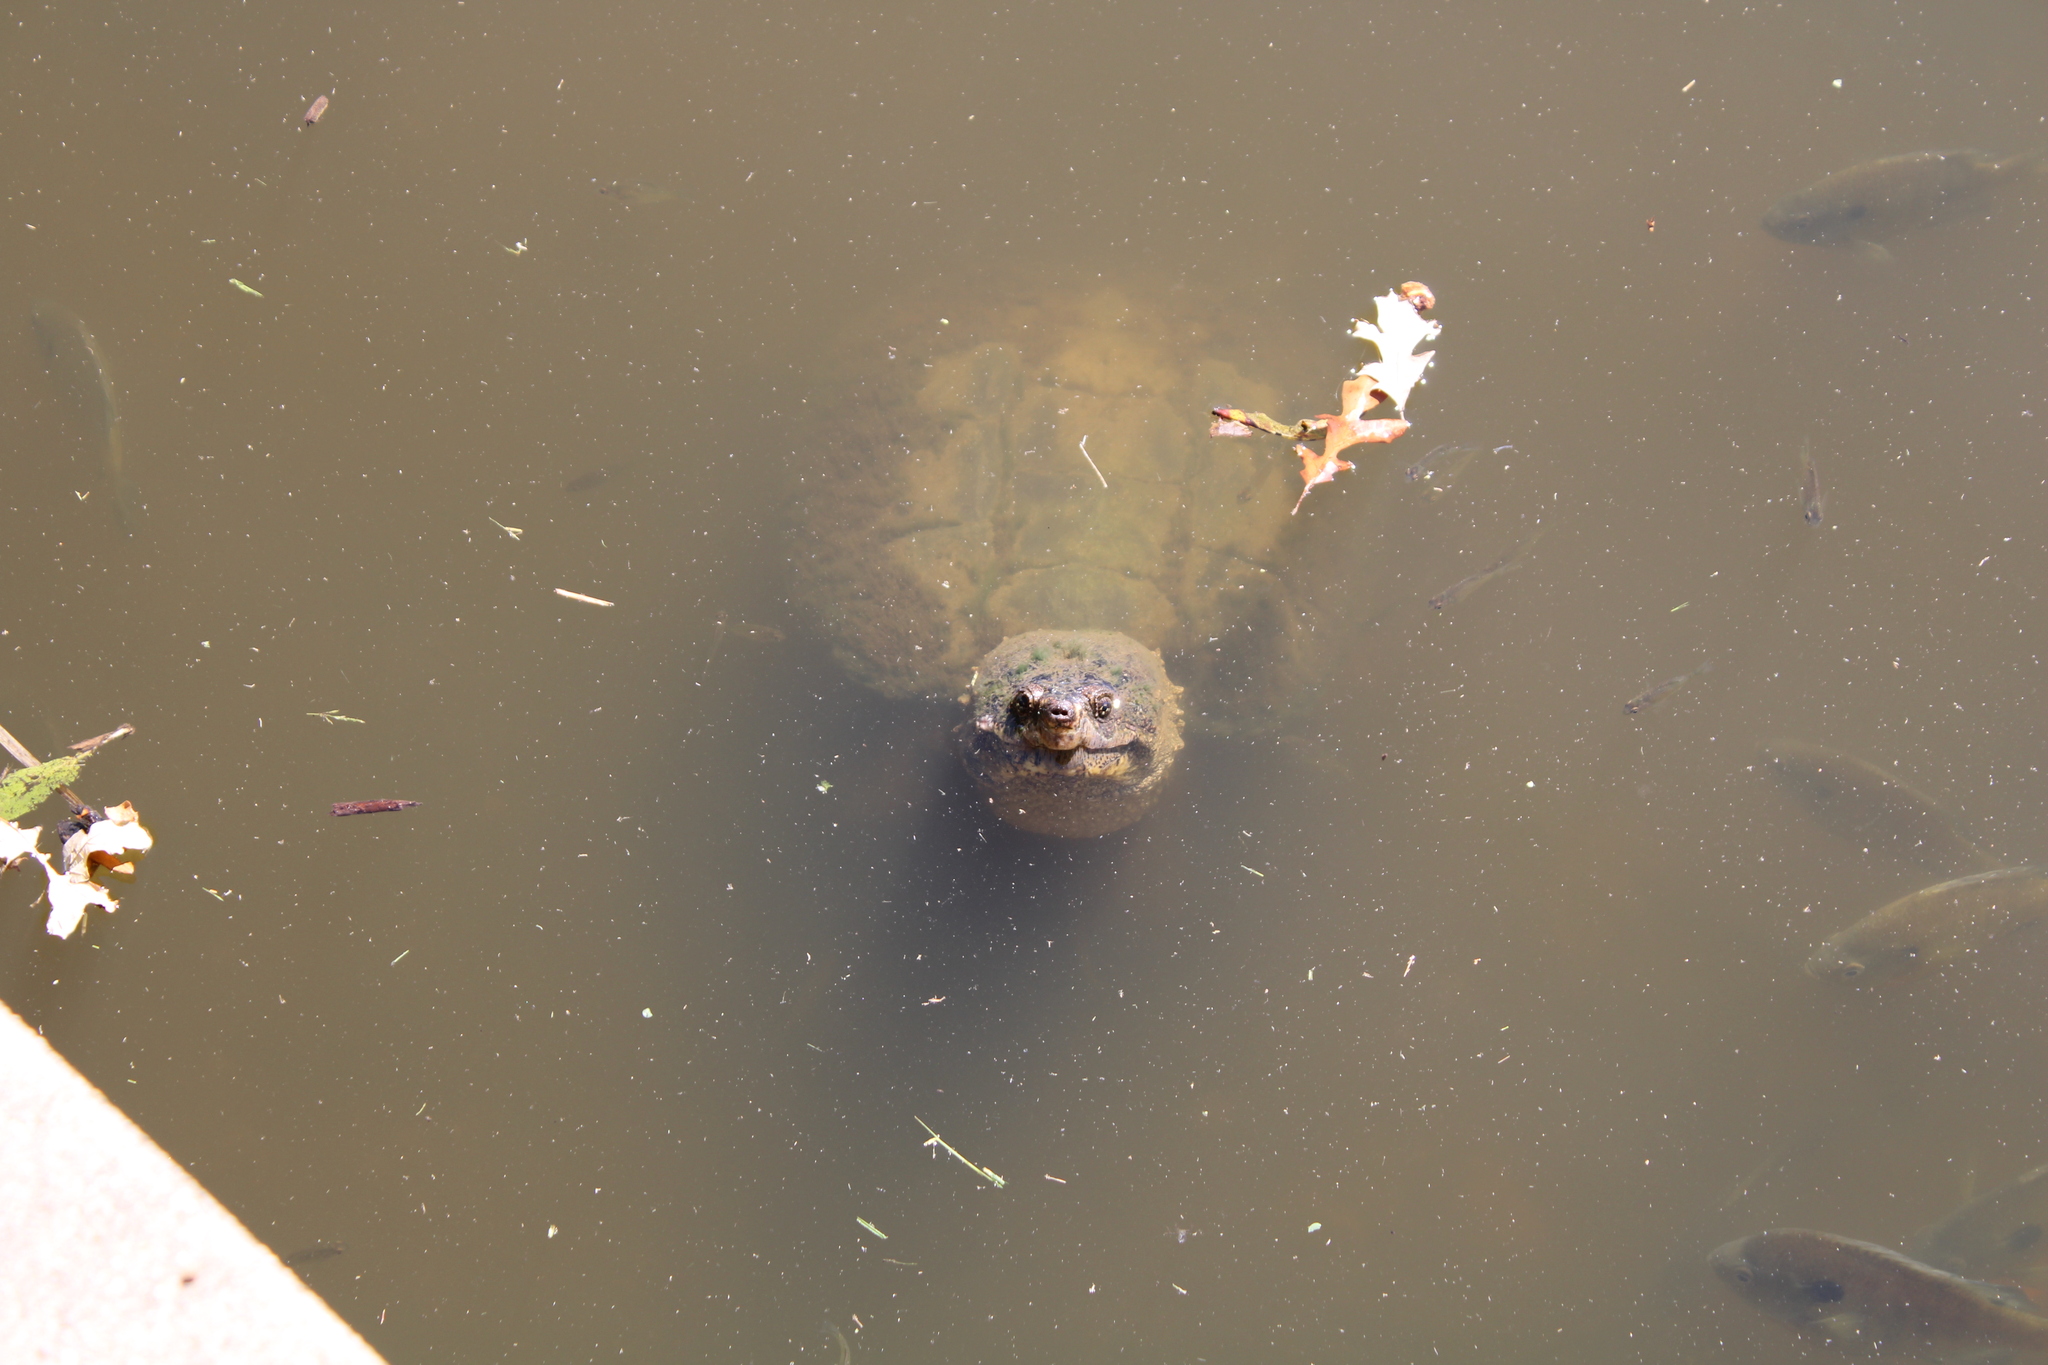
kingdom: Animalia
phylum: Chordata
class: Testudines
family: Chelydridae
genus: Chelydra
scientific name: Chelydra serpentina
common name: Common snapping turtle
